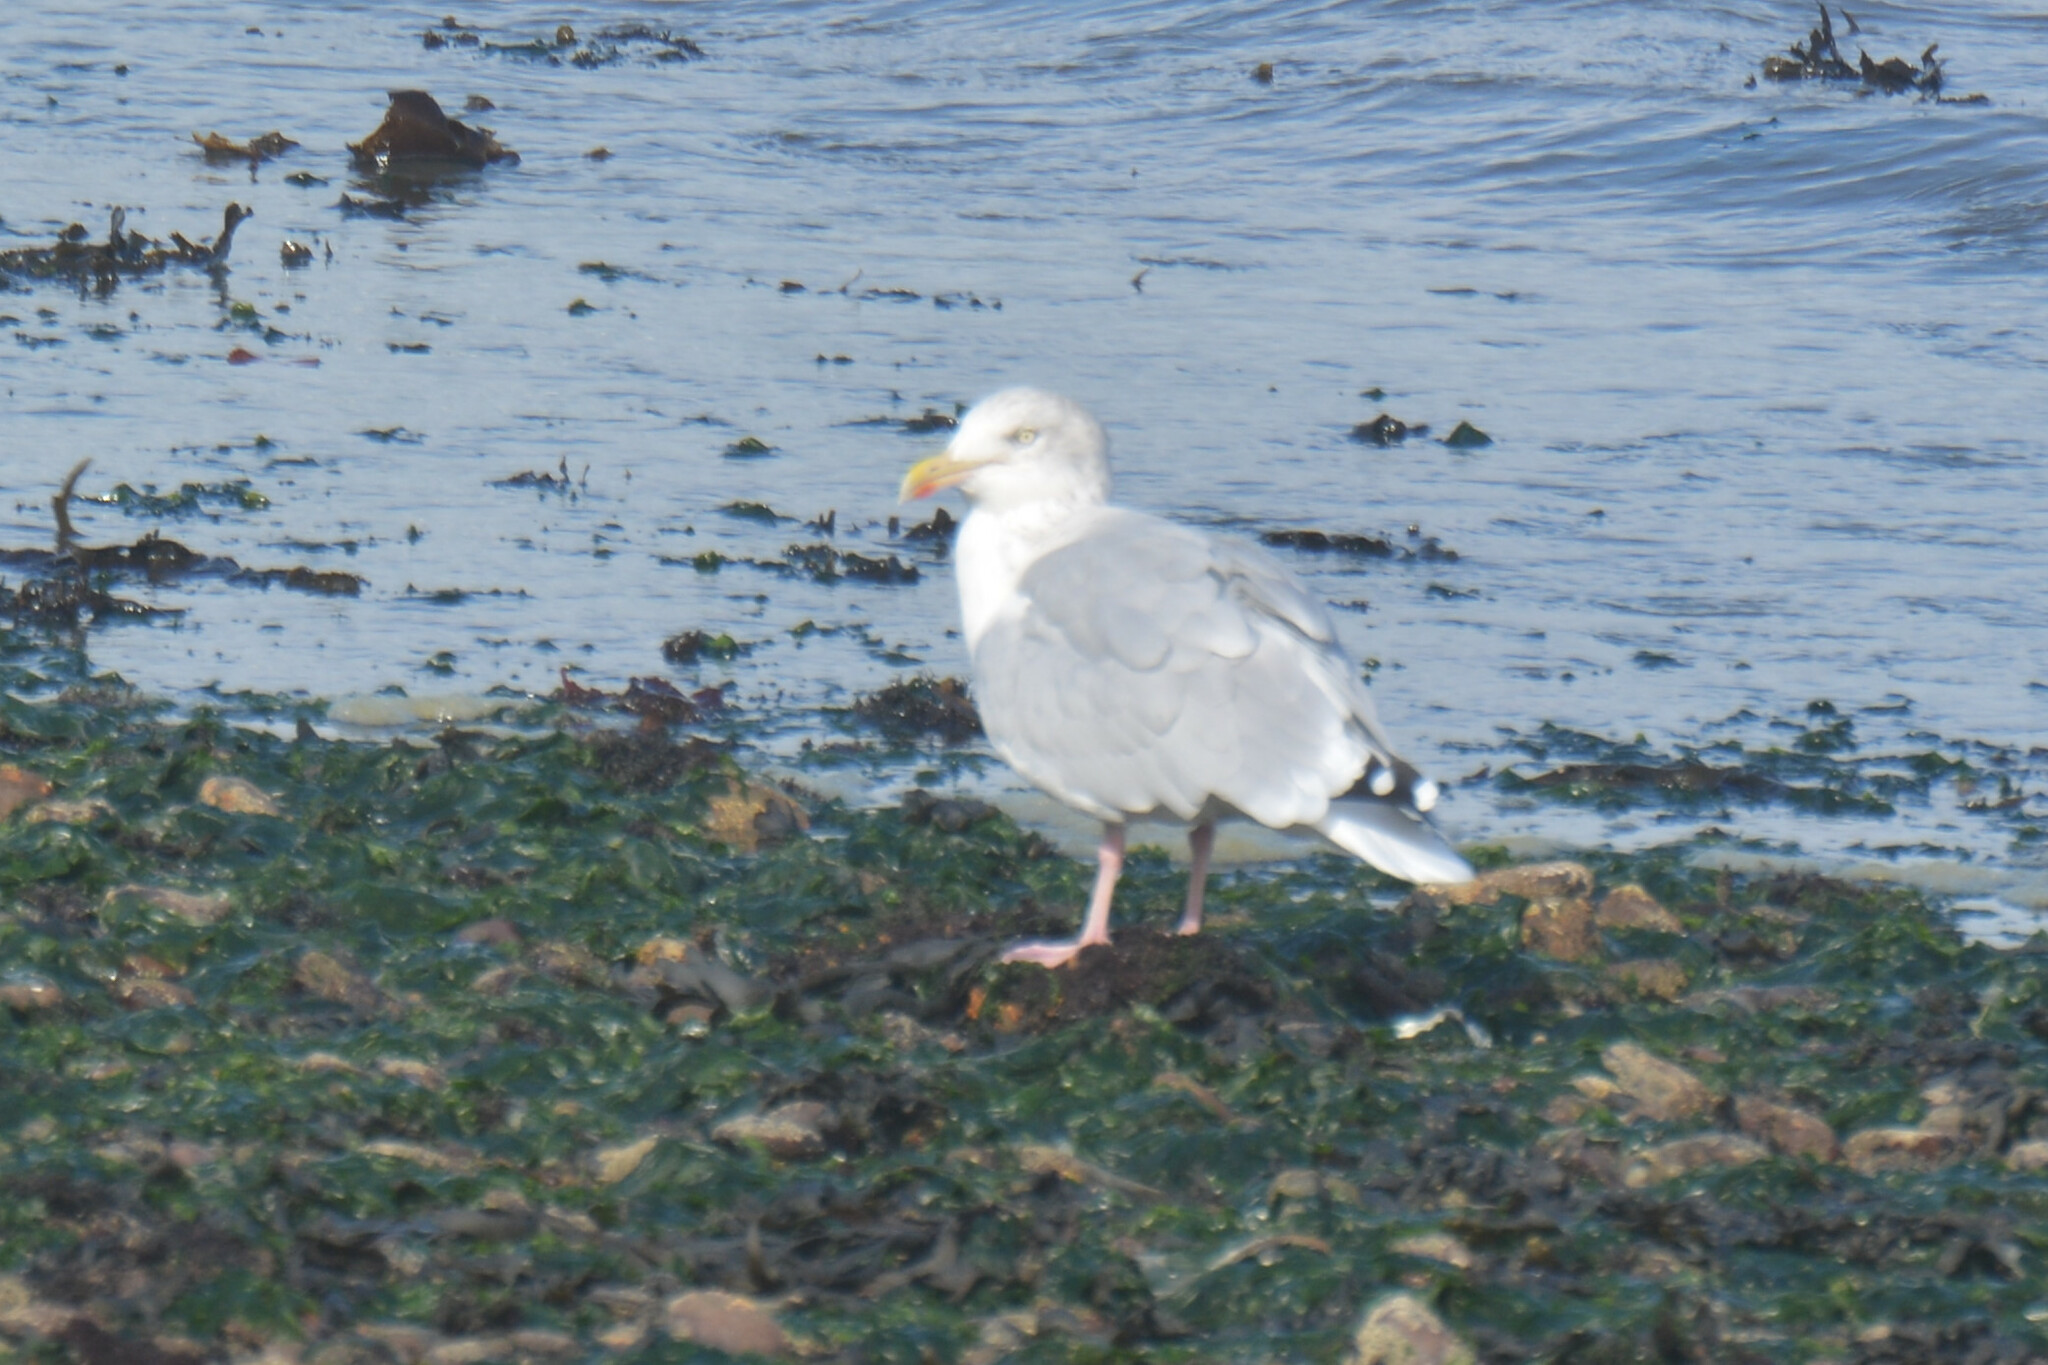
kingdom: Animalia
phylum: Chordata
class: Aves
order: Charadriiformes
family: Laridae
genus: Larus
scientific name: Larus argentatus
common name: Herring gull
